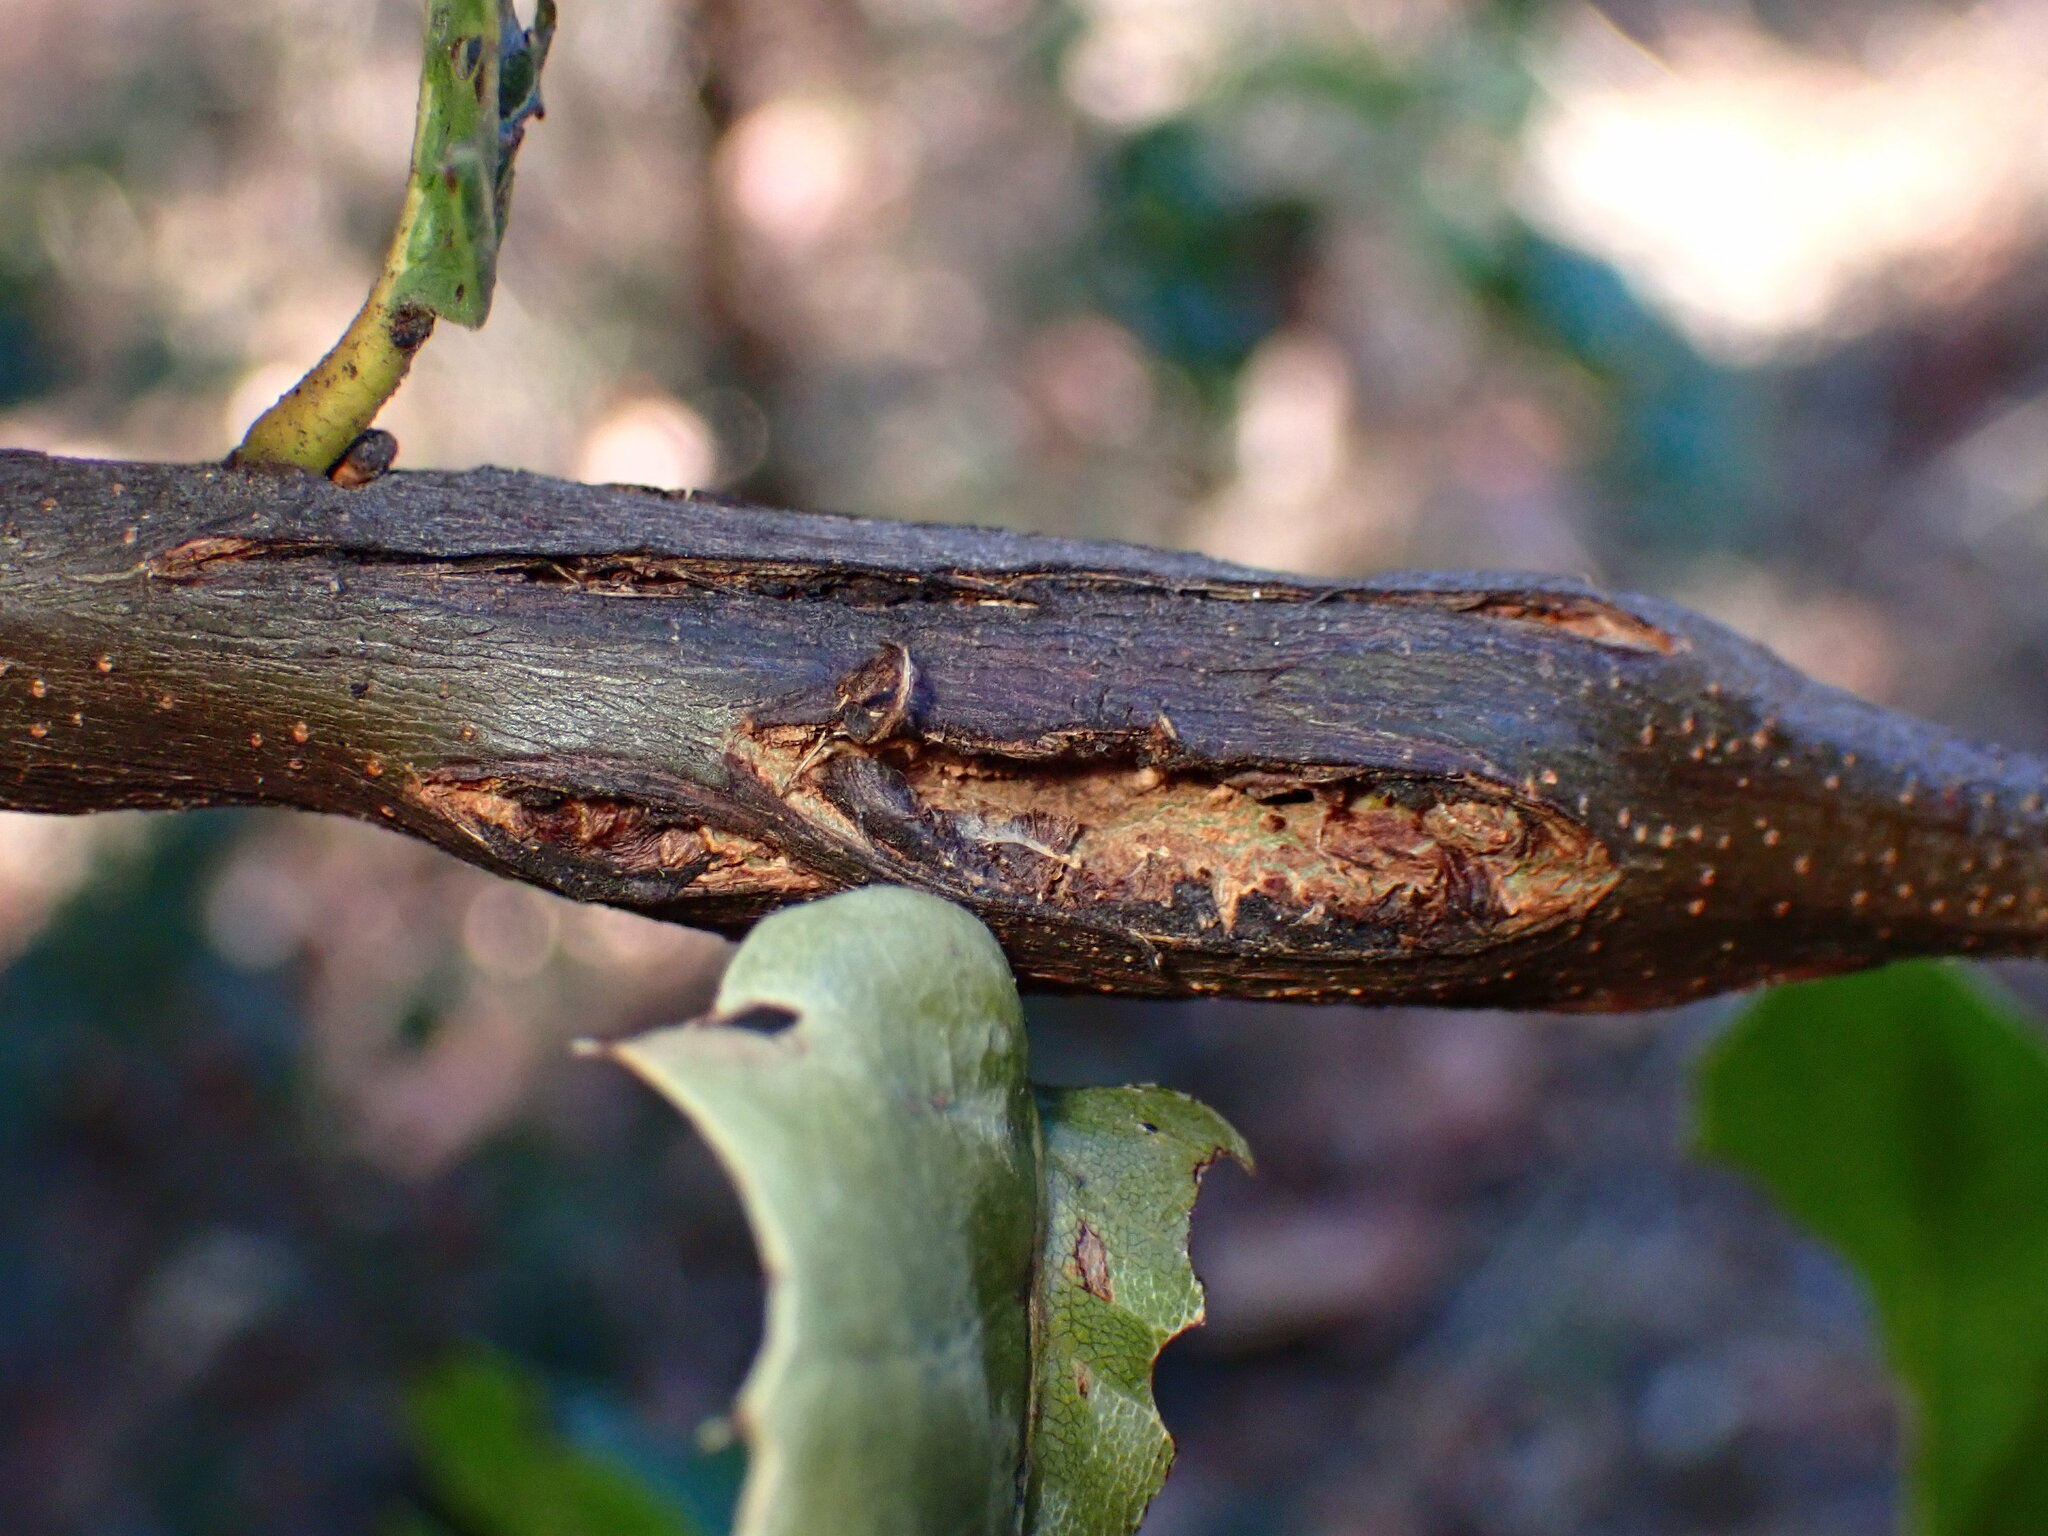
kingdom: Animalia
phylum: Arthropoda
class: Insecta
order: Hymenoptera
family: Cynipidae
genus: Dryocosmus
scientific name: Dryocosmus
